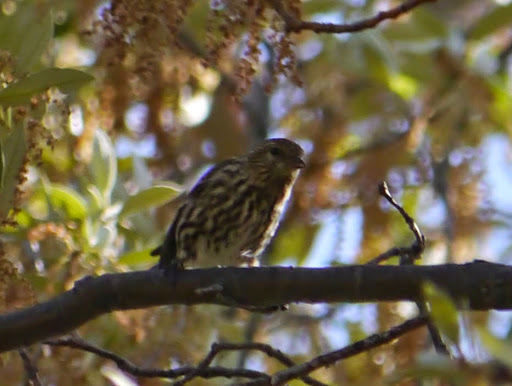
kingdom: Animalia
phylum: Chordata
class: Aves
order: Passeriformes
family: Fringillidae
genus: Spinus
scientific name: Spinus pinus
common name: Pine siskin
